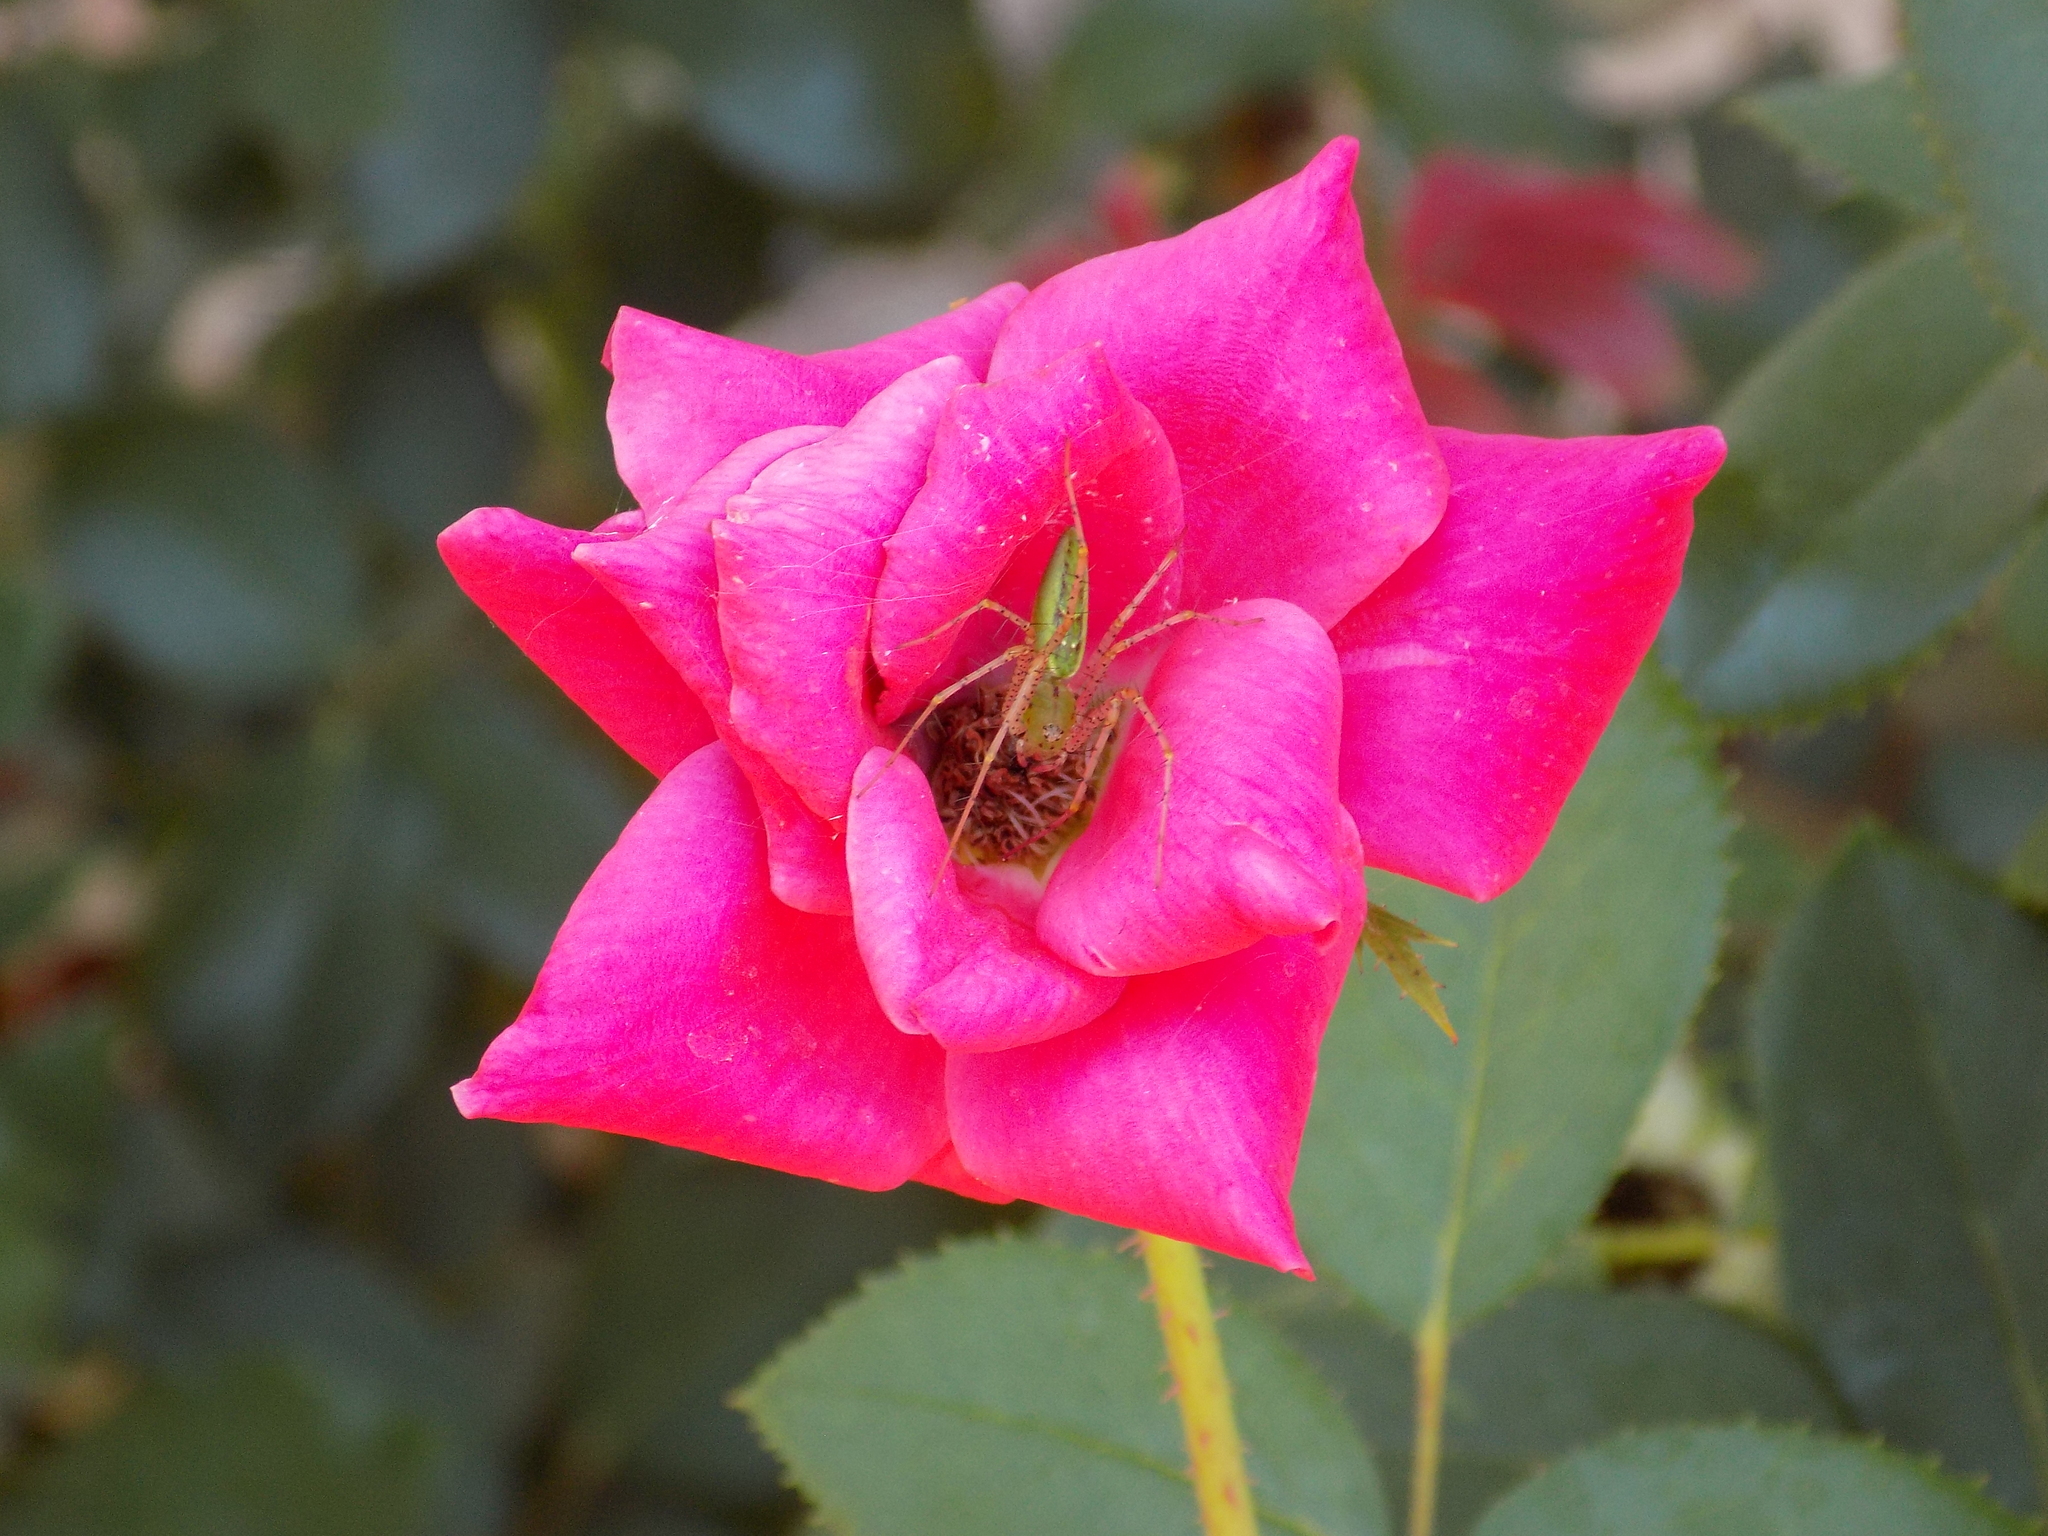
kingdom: Animalia
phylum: Arthropoda
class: Arachnida
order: Araneae
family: Oxyopidae
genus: Peucetia
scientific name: Peucetia viridans
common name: Lynx spiders
